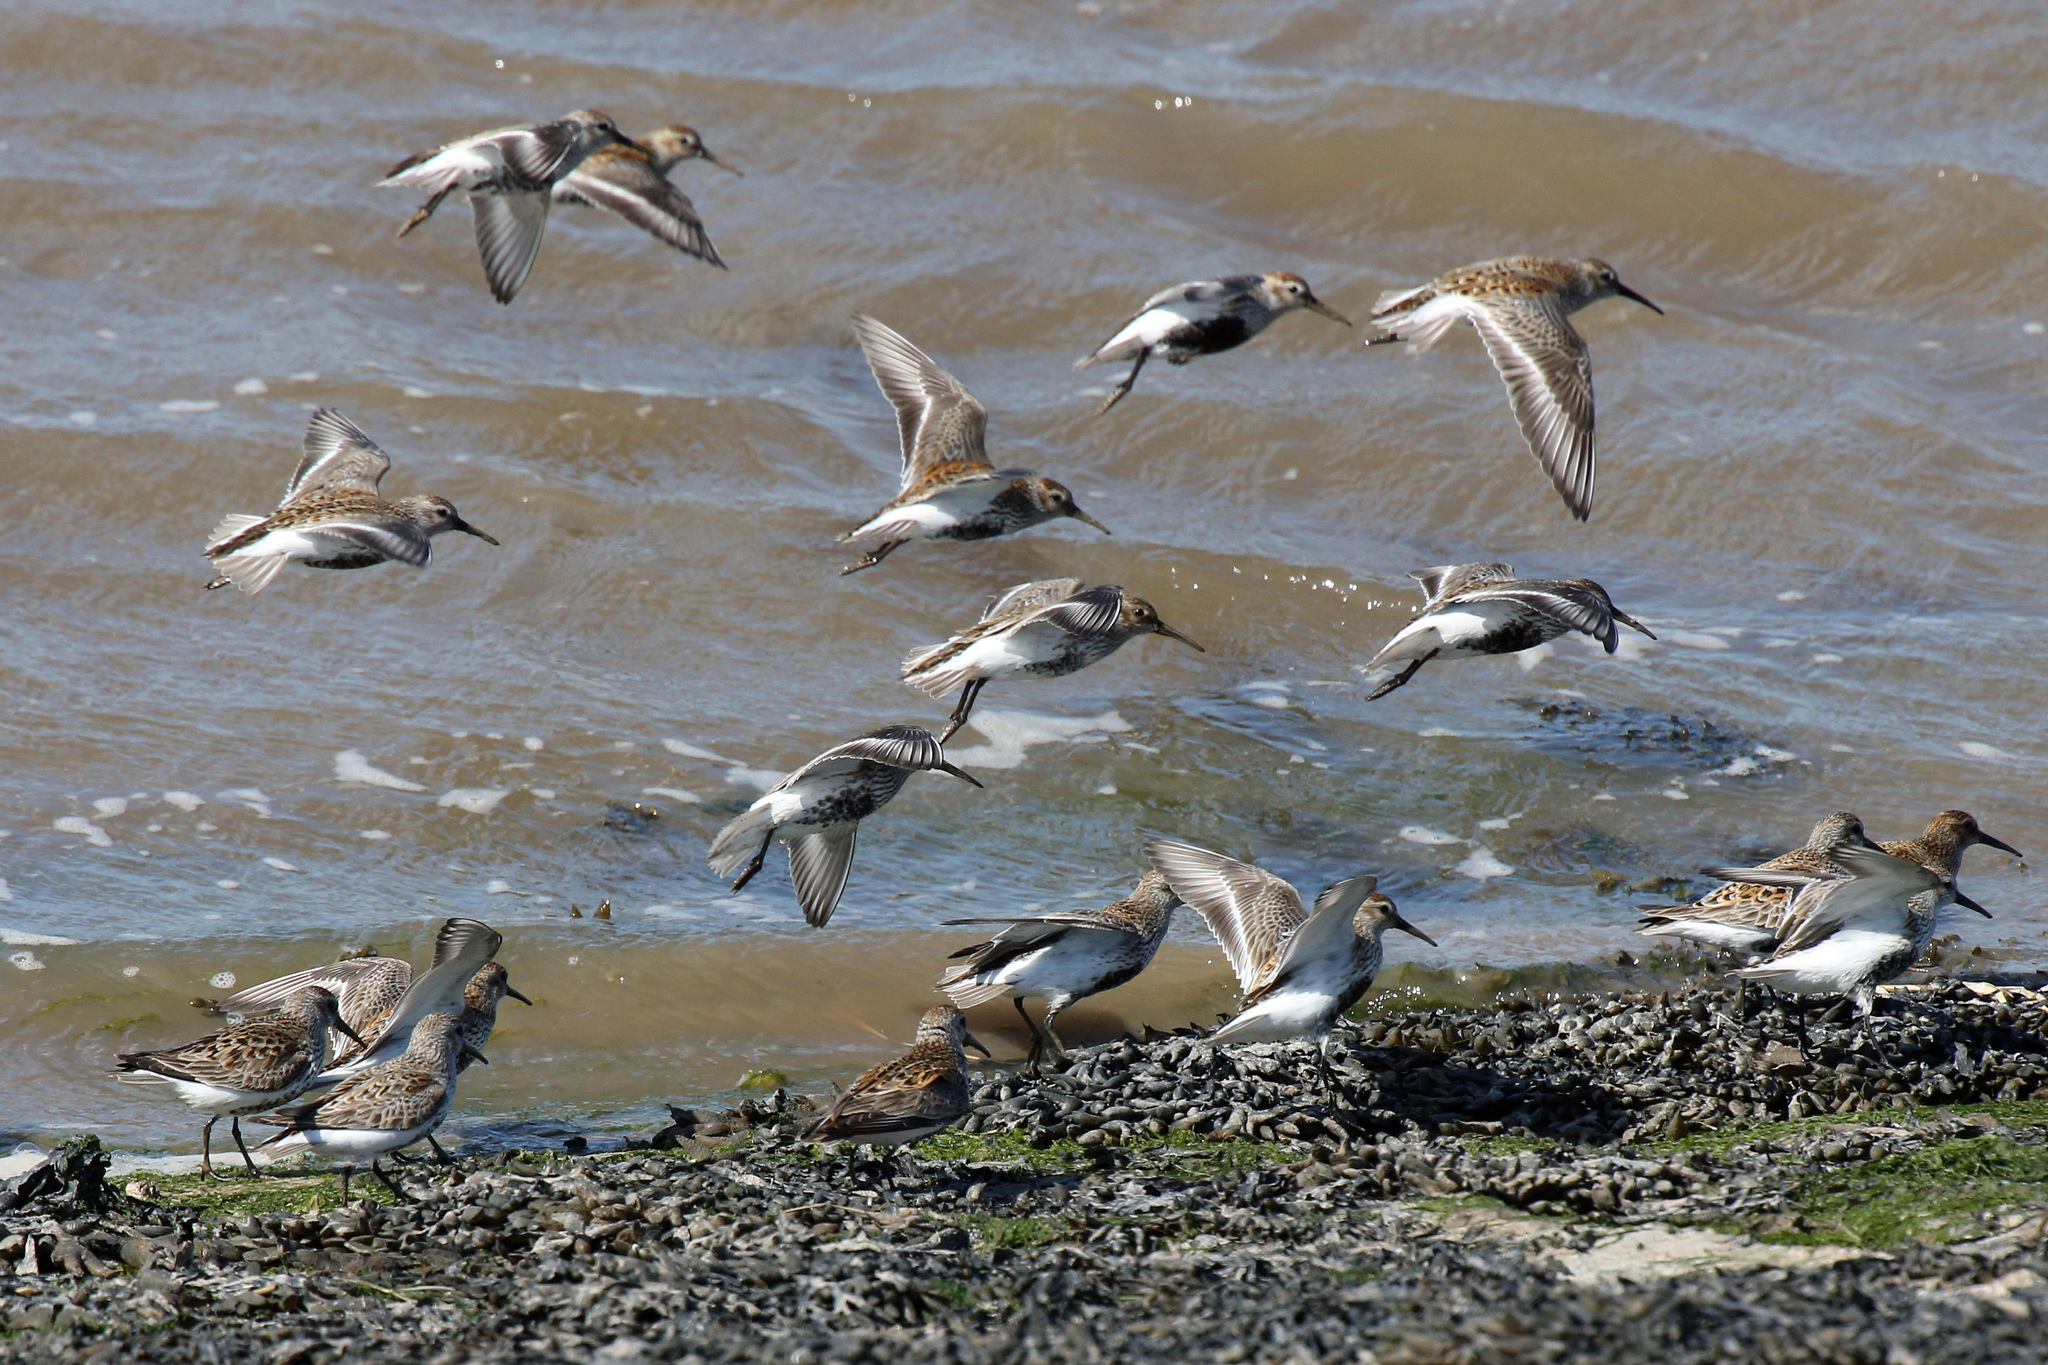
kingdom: Animalia
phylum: Chordata
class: Aves
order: Charadriiformes
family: Scolopacidae
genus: Calidris
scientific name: Calidris alpina
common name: Dunlin
